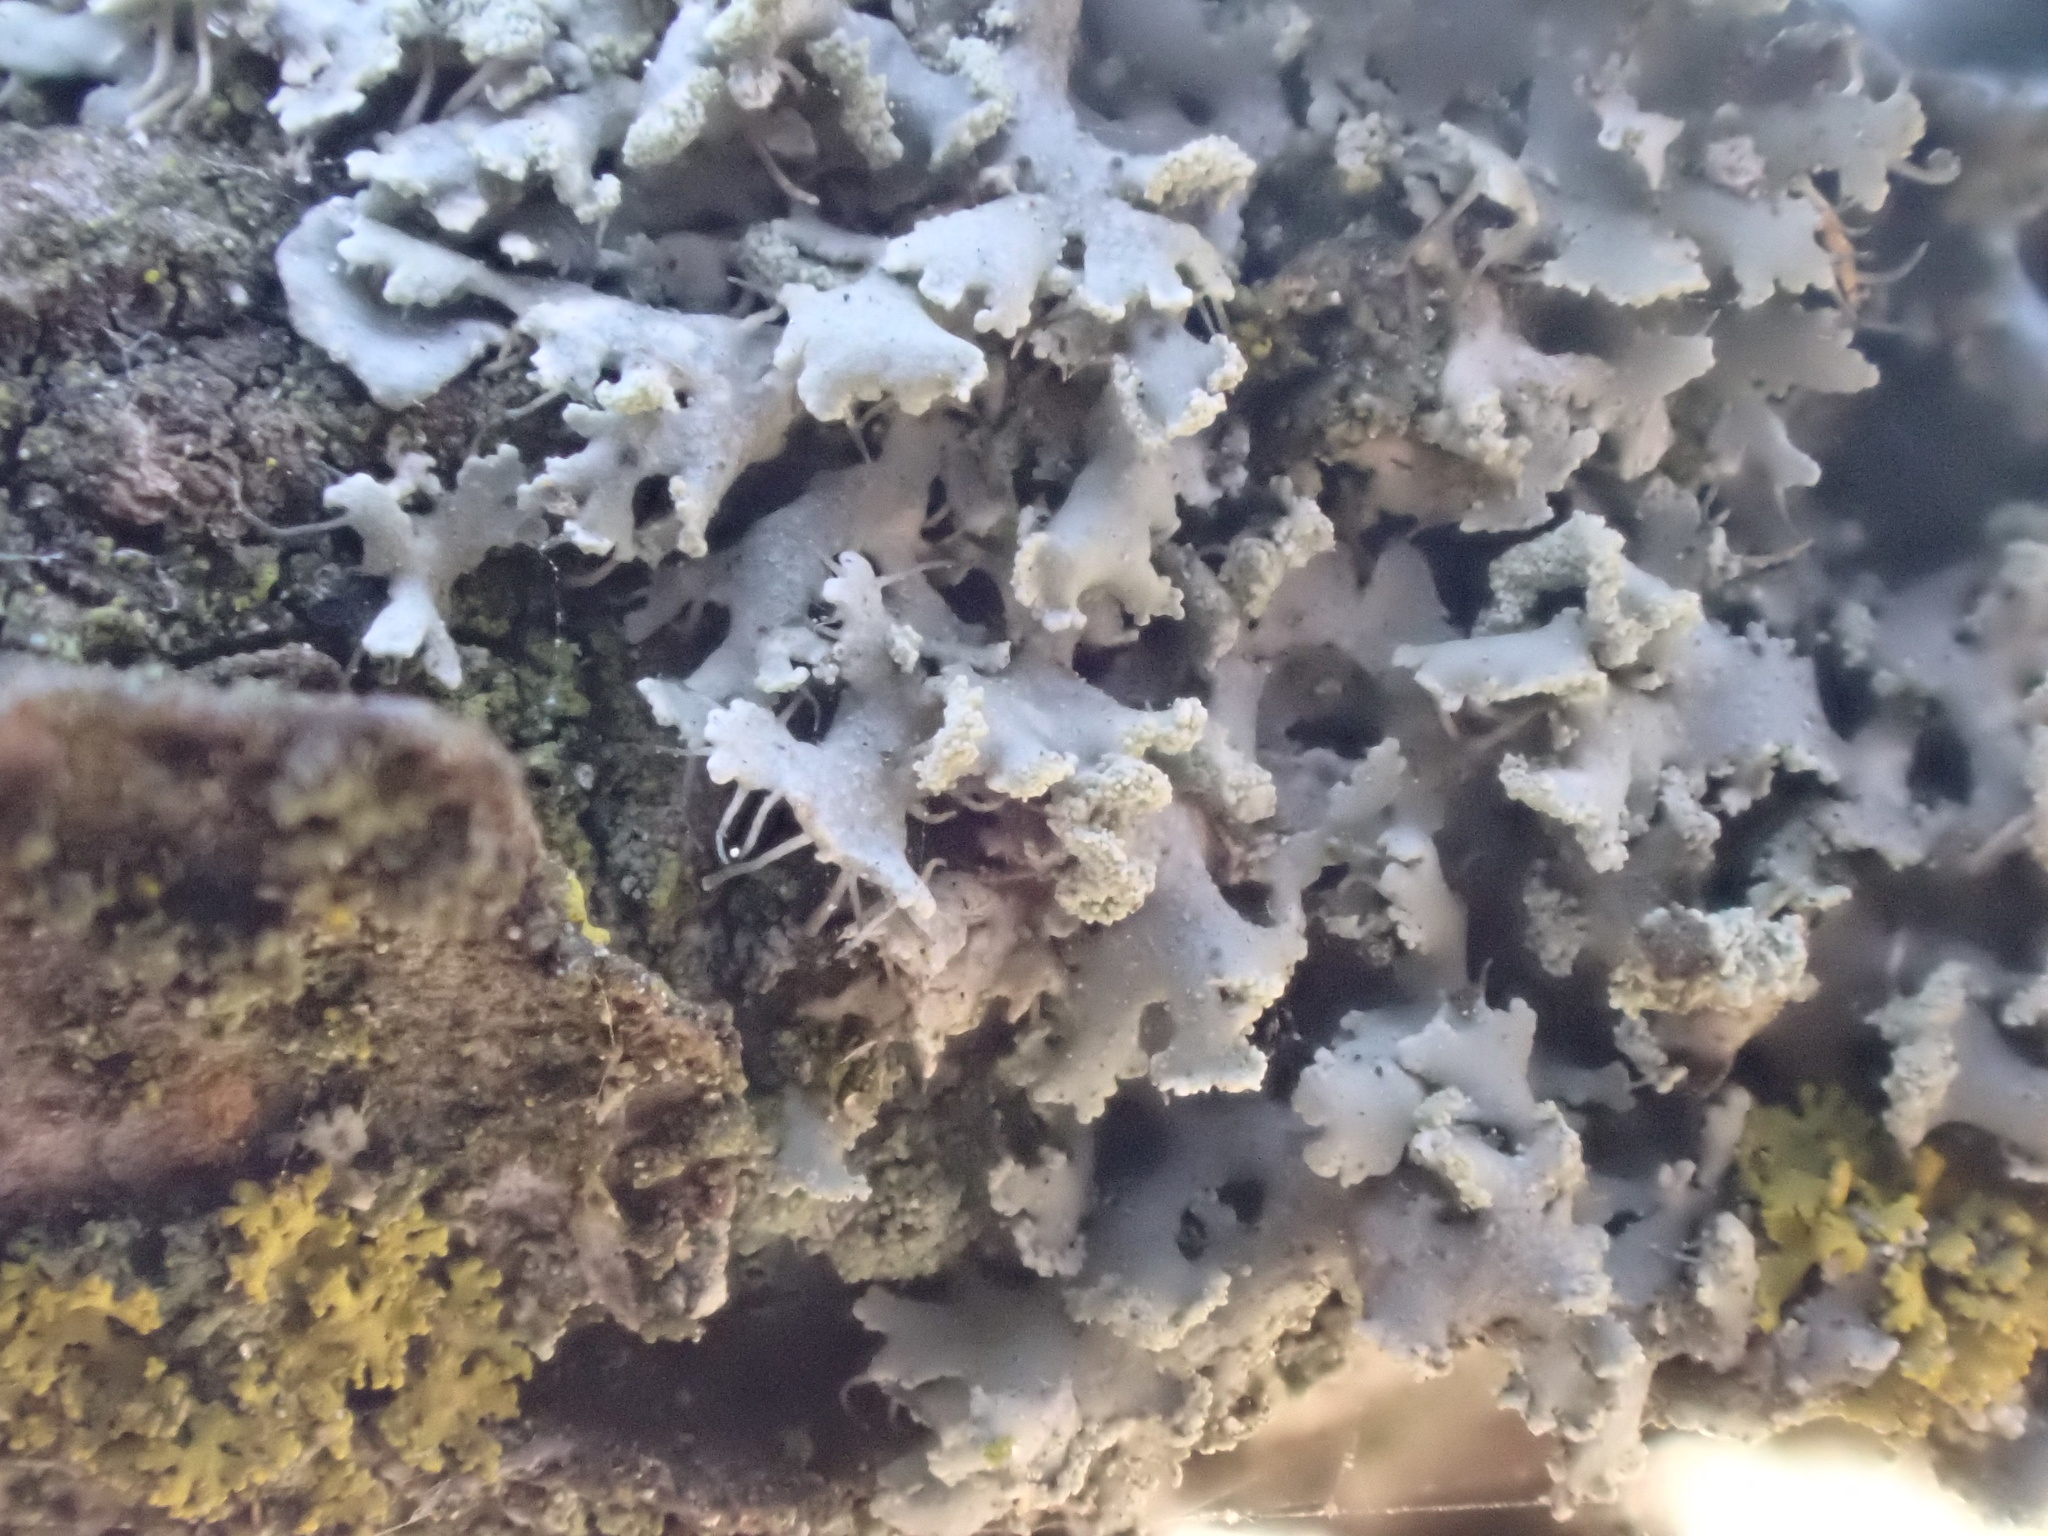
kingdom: Fungi
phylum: Ascomycota
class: Lecanoromycetes
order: Caliciales
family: Physciaceae
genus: Physcia
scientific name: Physcia tenella
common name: Fringed rosette lichen
